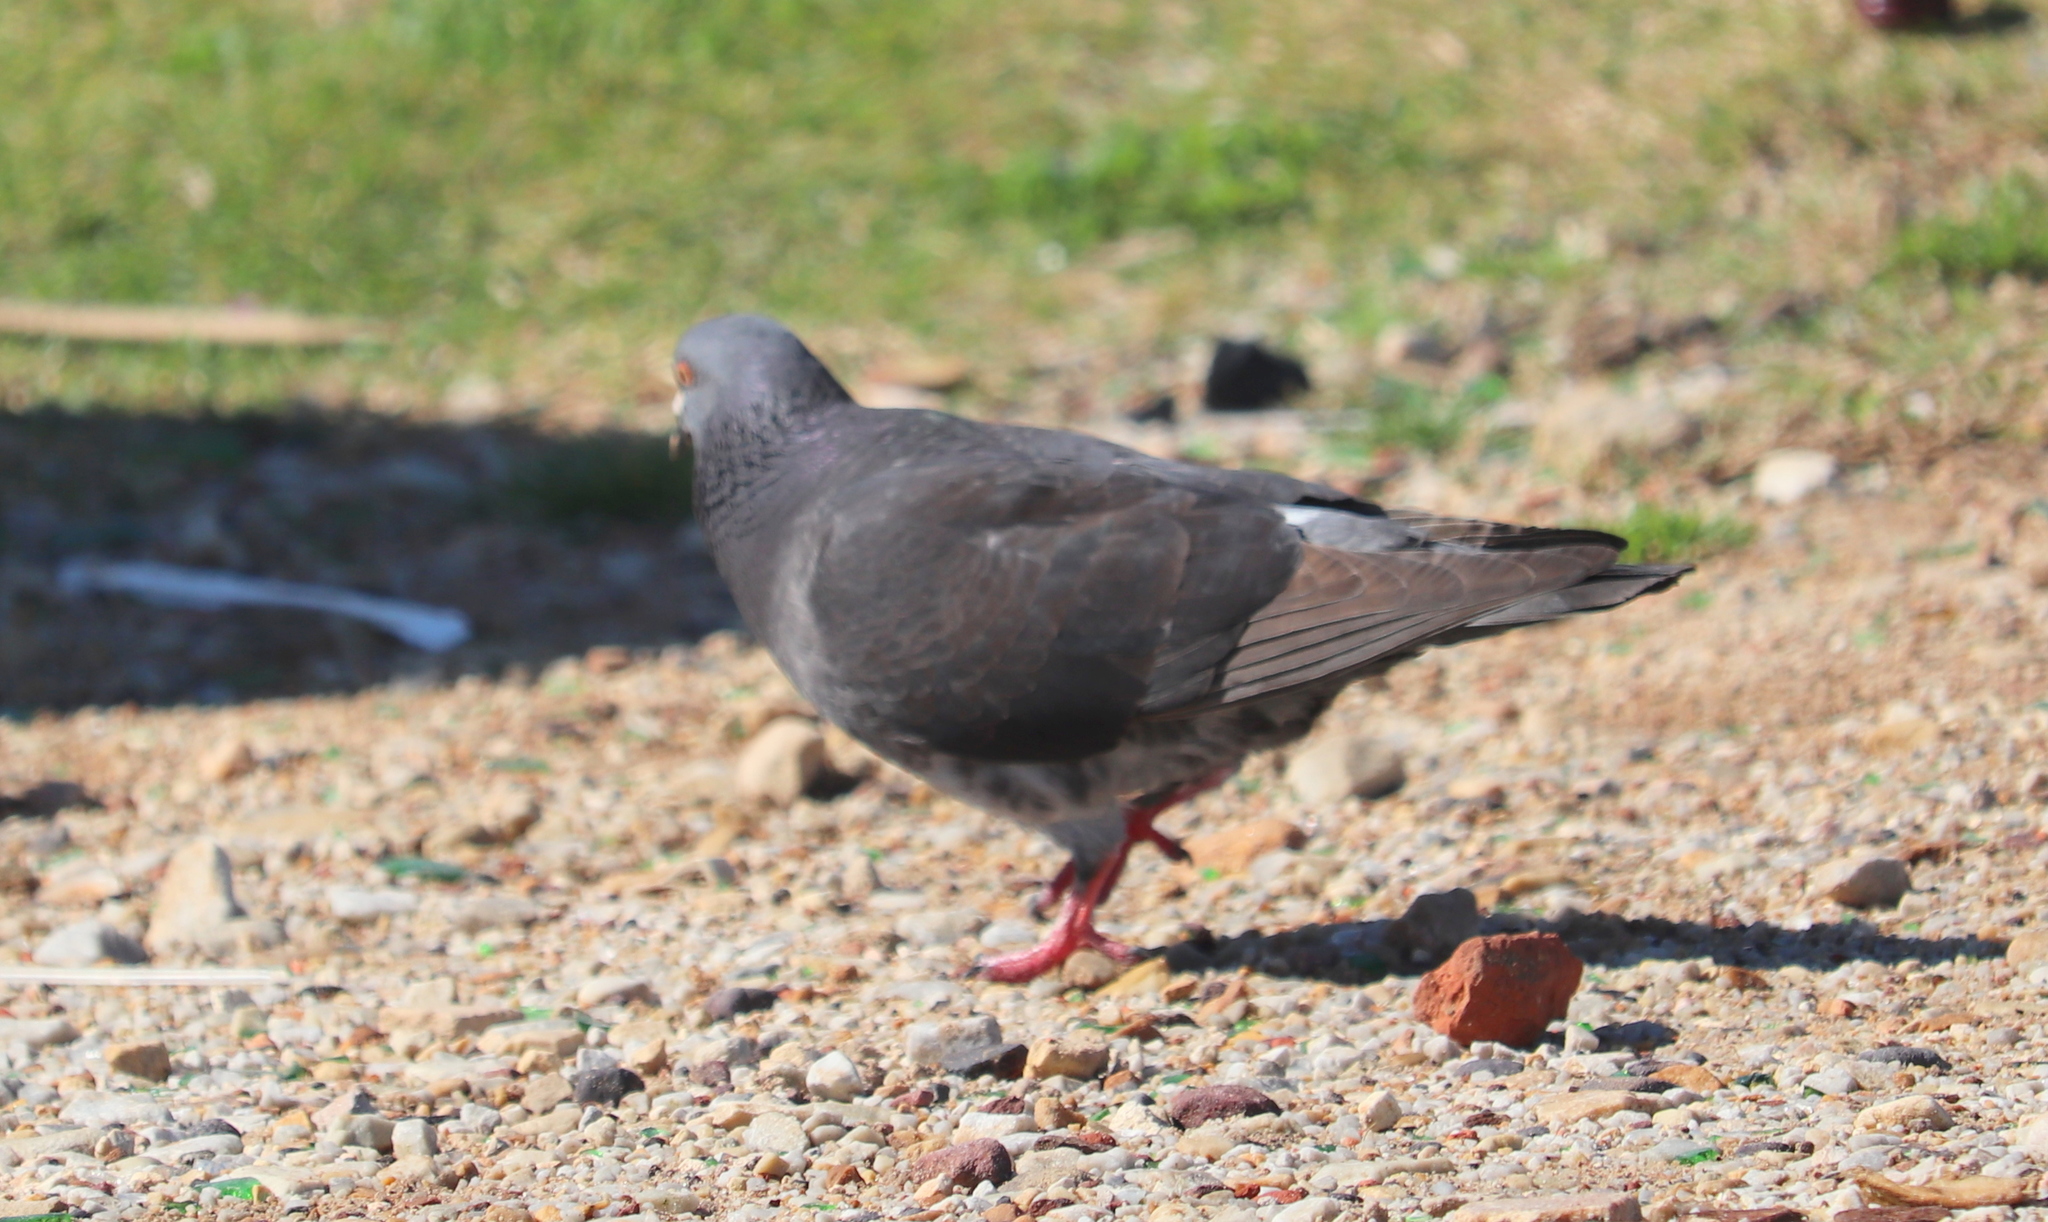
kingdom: Animalia
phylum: Chordata
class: Aves
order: Columbiformes
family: Columbidae
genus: Columba
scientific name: Columba livia
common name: Rock pigeon
